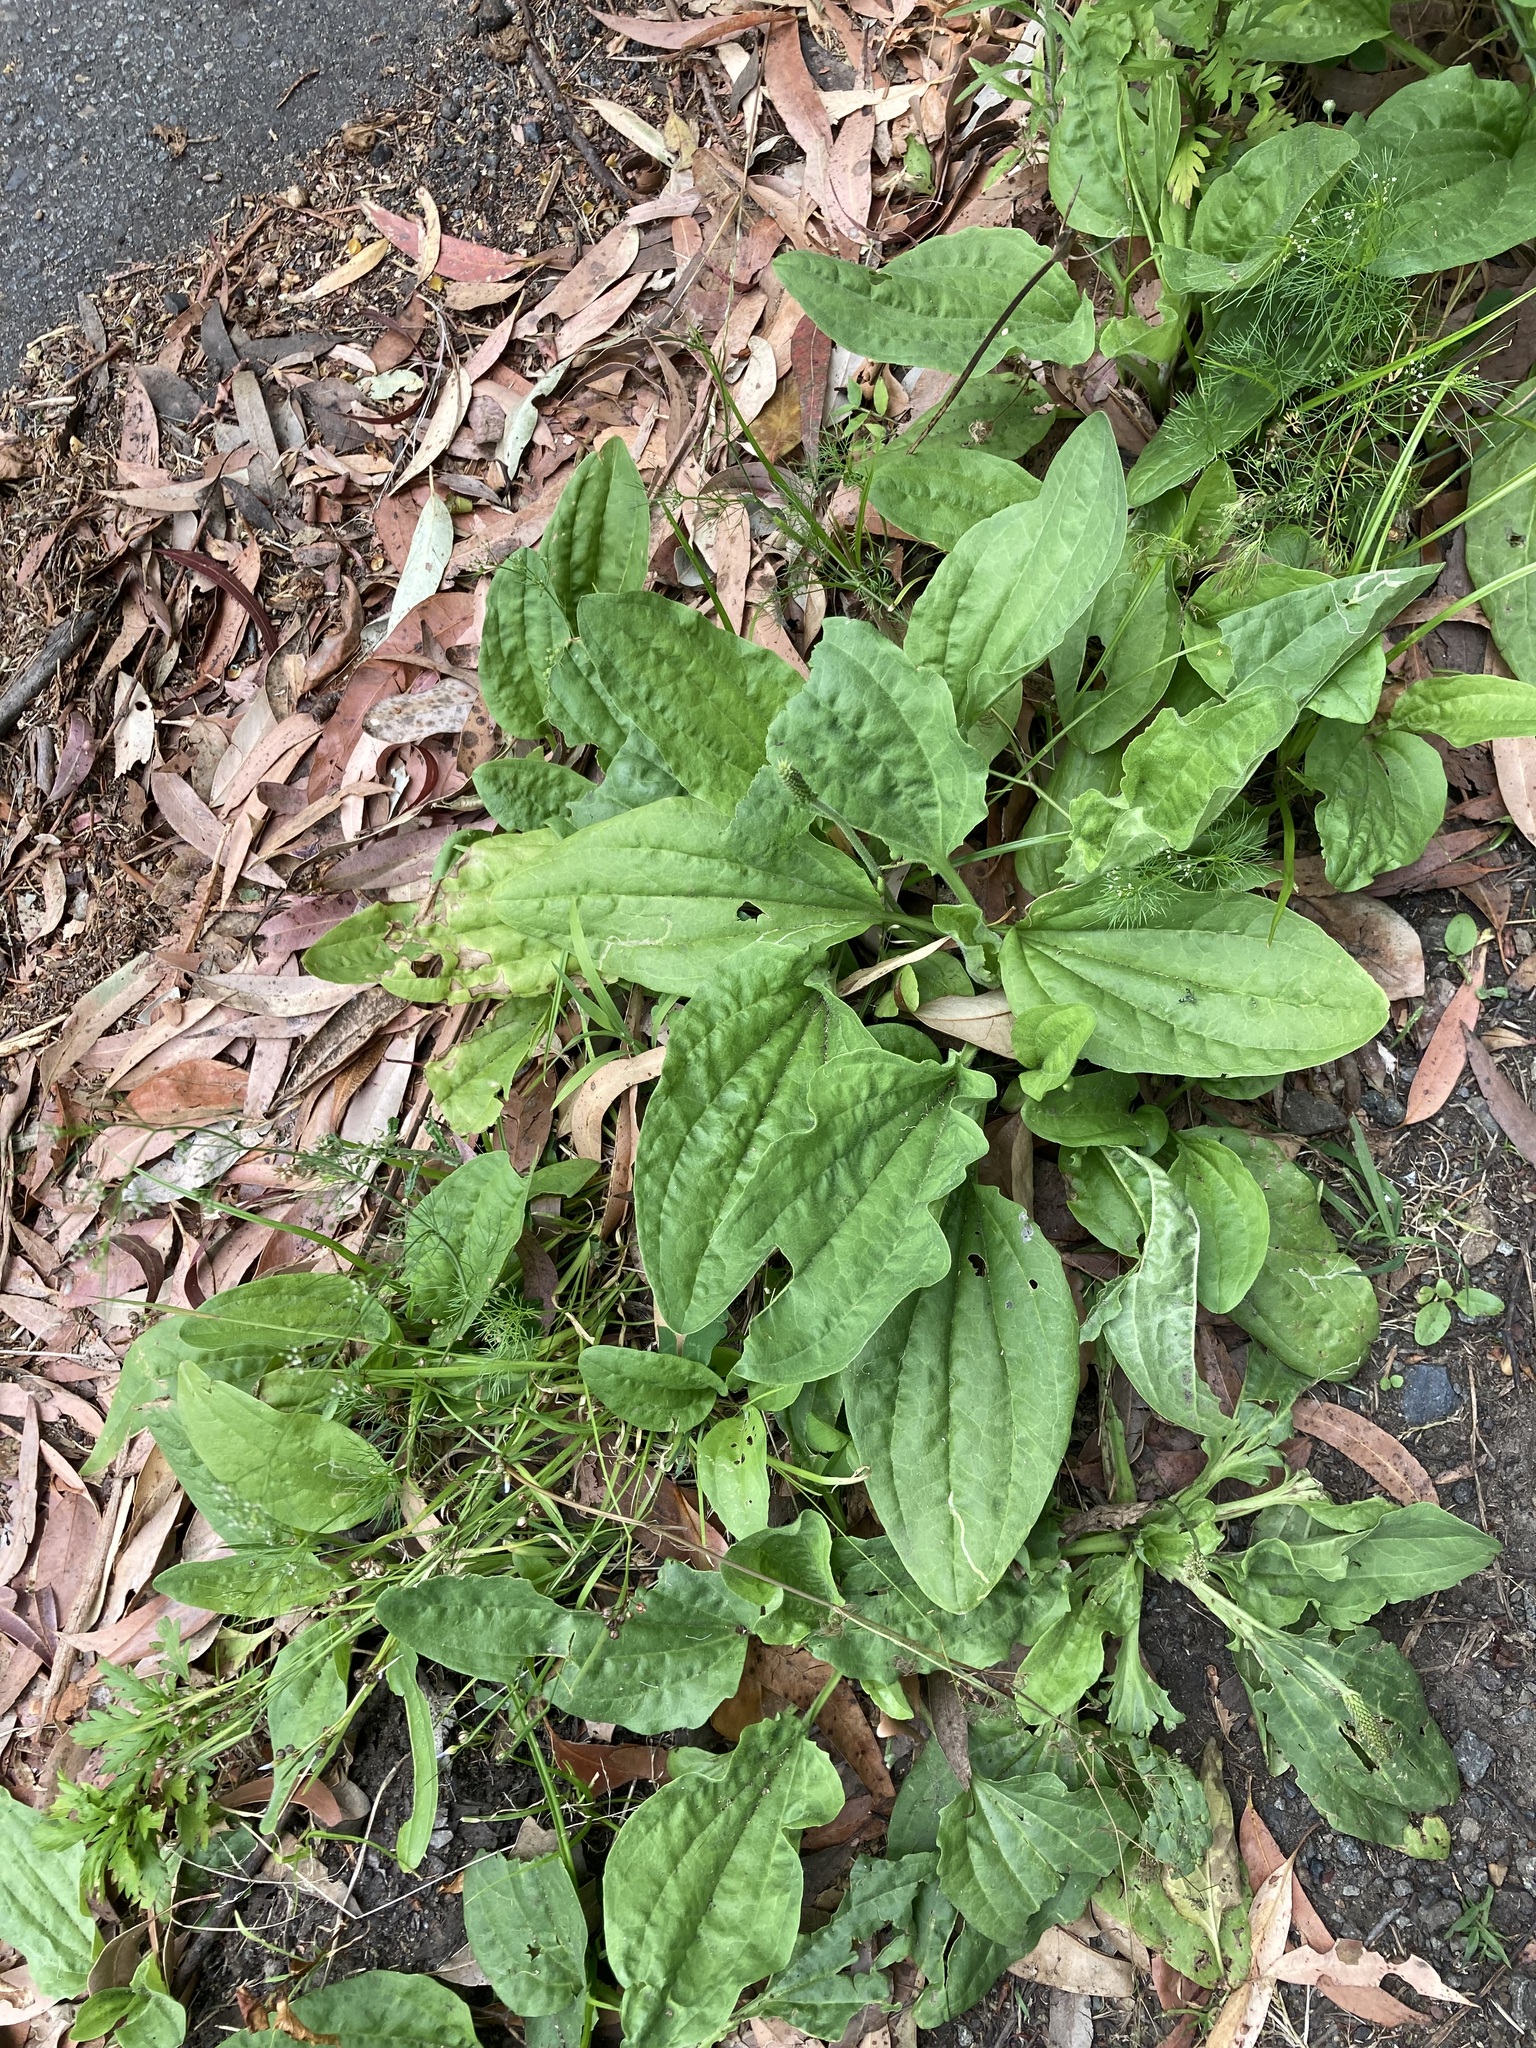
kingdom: Plantae
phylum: Tracheophyta
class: Magnoliopsida
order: Lamiales
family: Plantaginaceae
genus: Plantago
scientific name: Plantago major
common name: Common plantain
